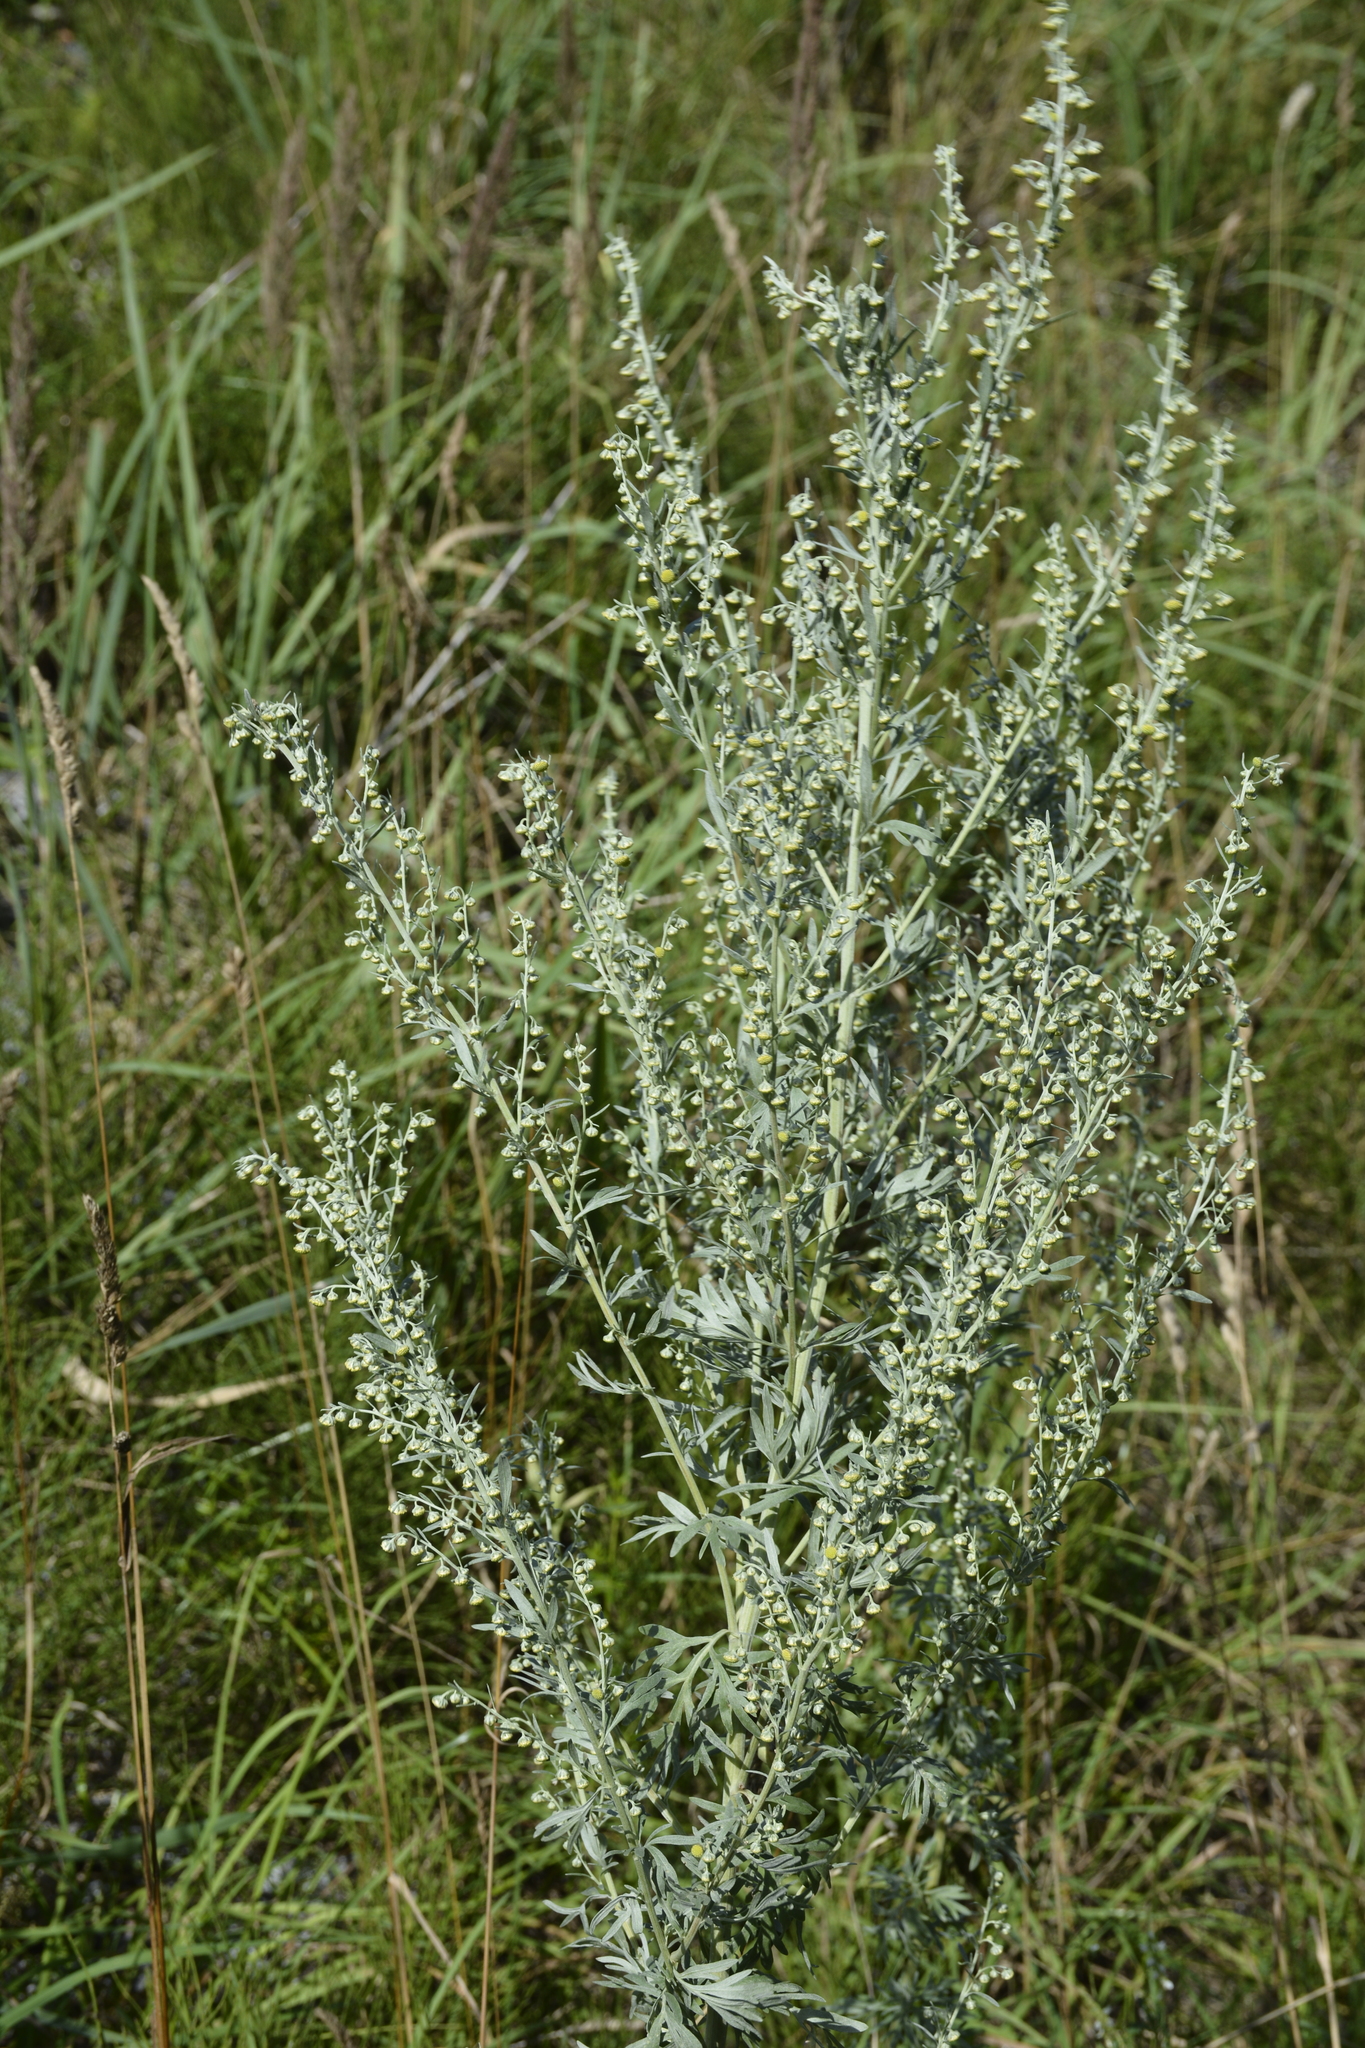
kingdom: Plantae
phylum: Tracheophyta
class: Magnoliopsida
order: Asterales
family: Asteraceae
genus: Artemisia
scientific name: Artemisia absinthium
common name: Wormwood
